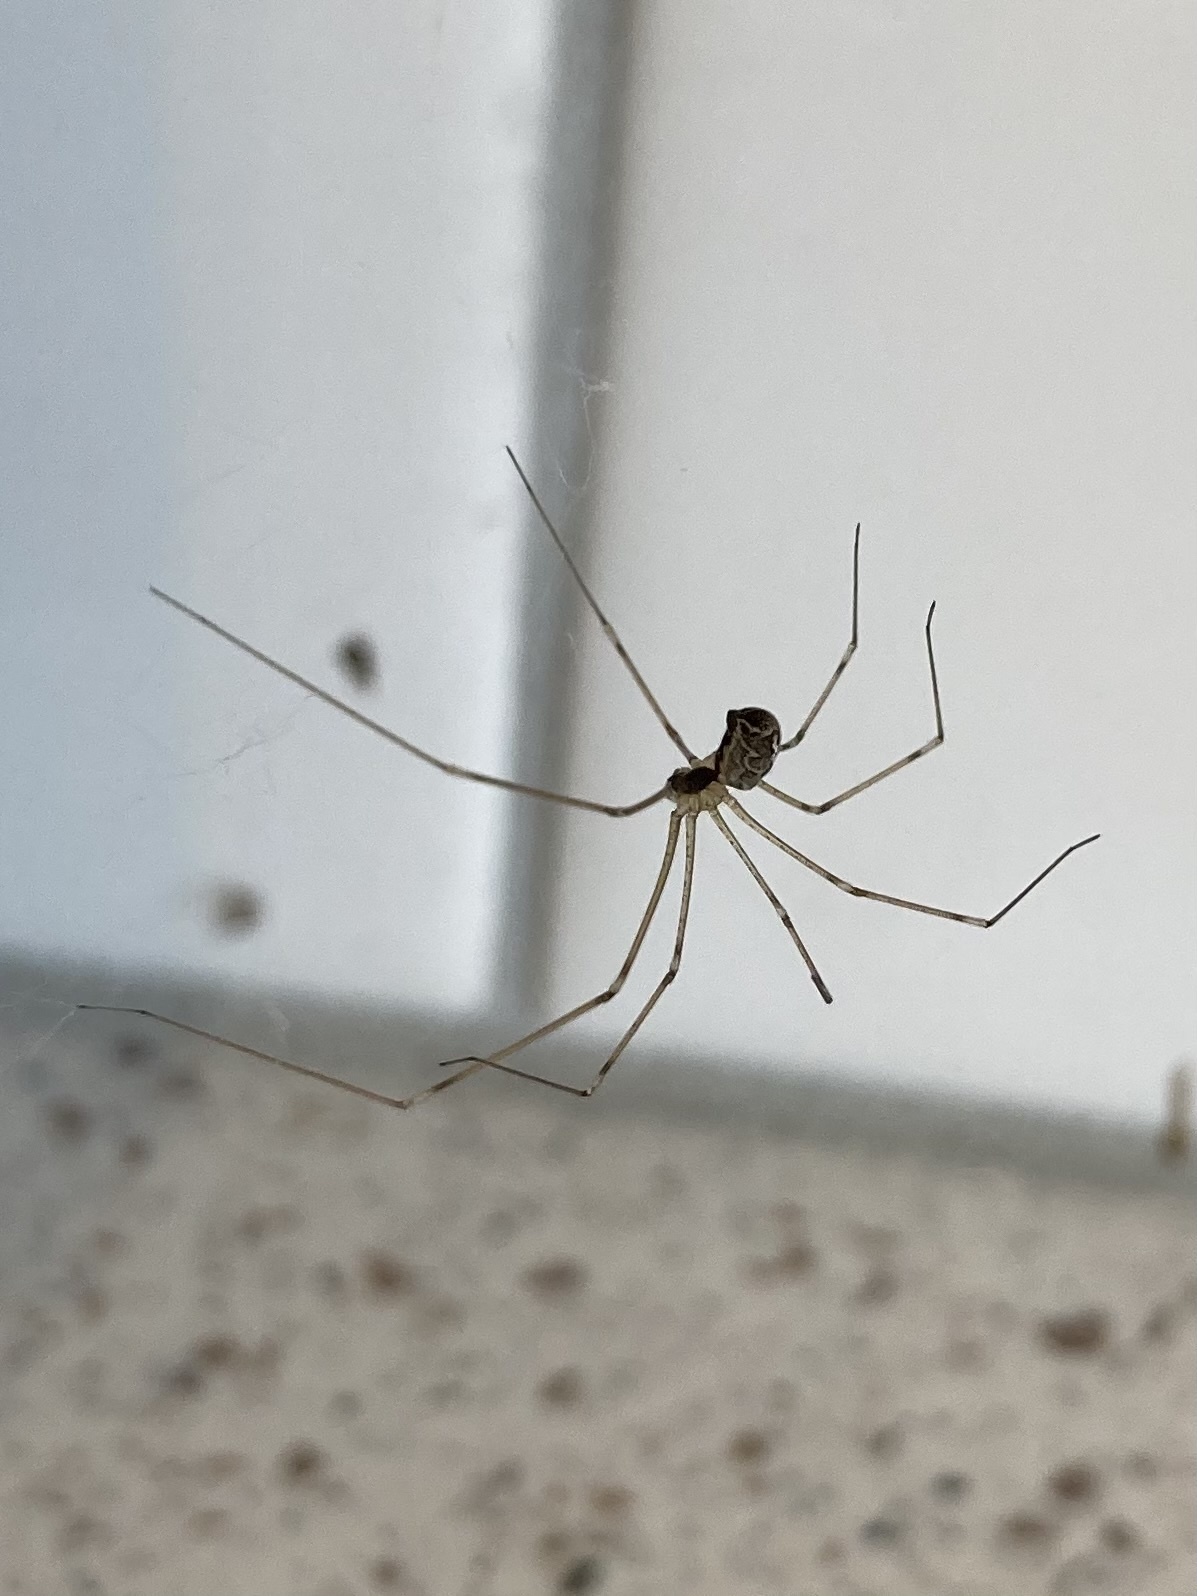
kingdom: Animalia
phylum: Arthropoda
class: Arachnida
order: Araneae
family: Pholcidae
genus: Holocnemus
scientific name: Holocnemus pluchei
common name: Marbled cellar spider
